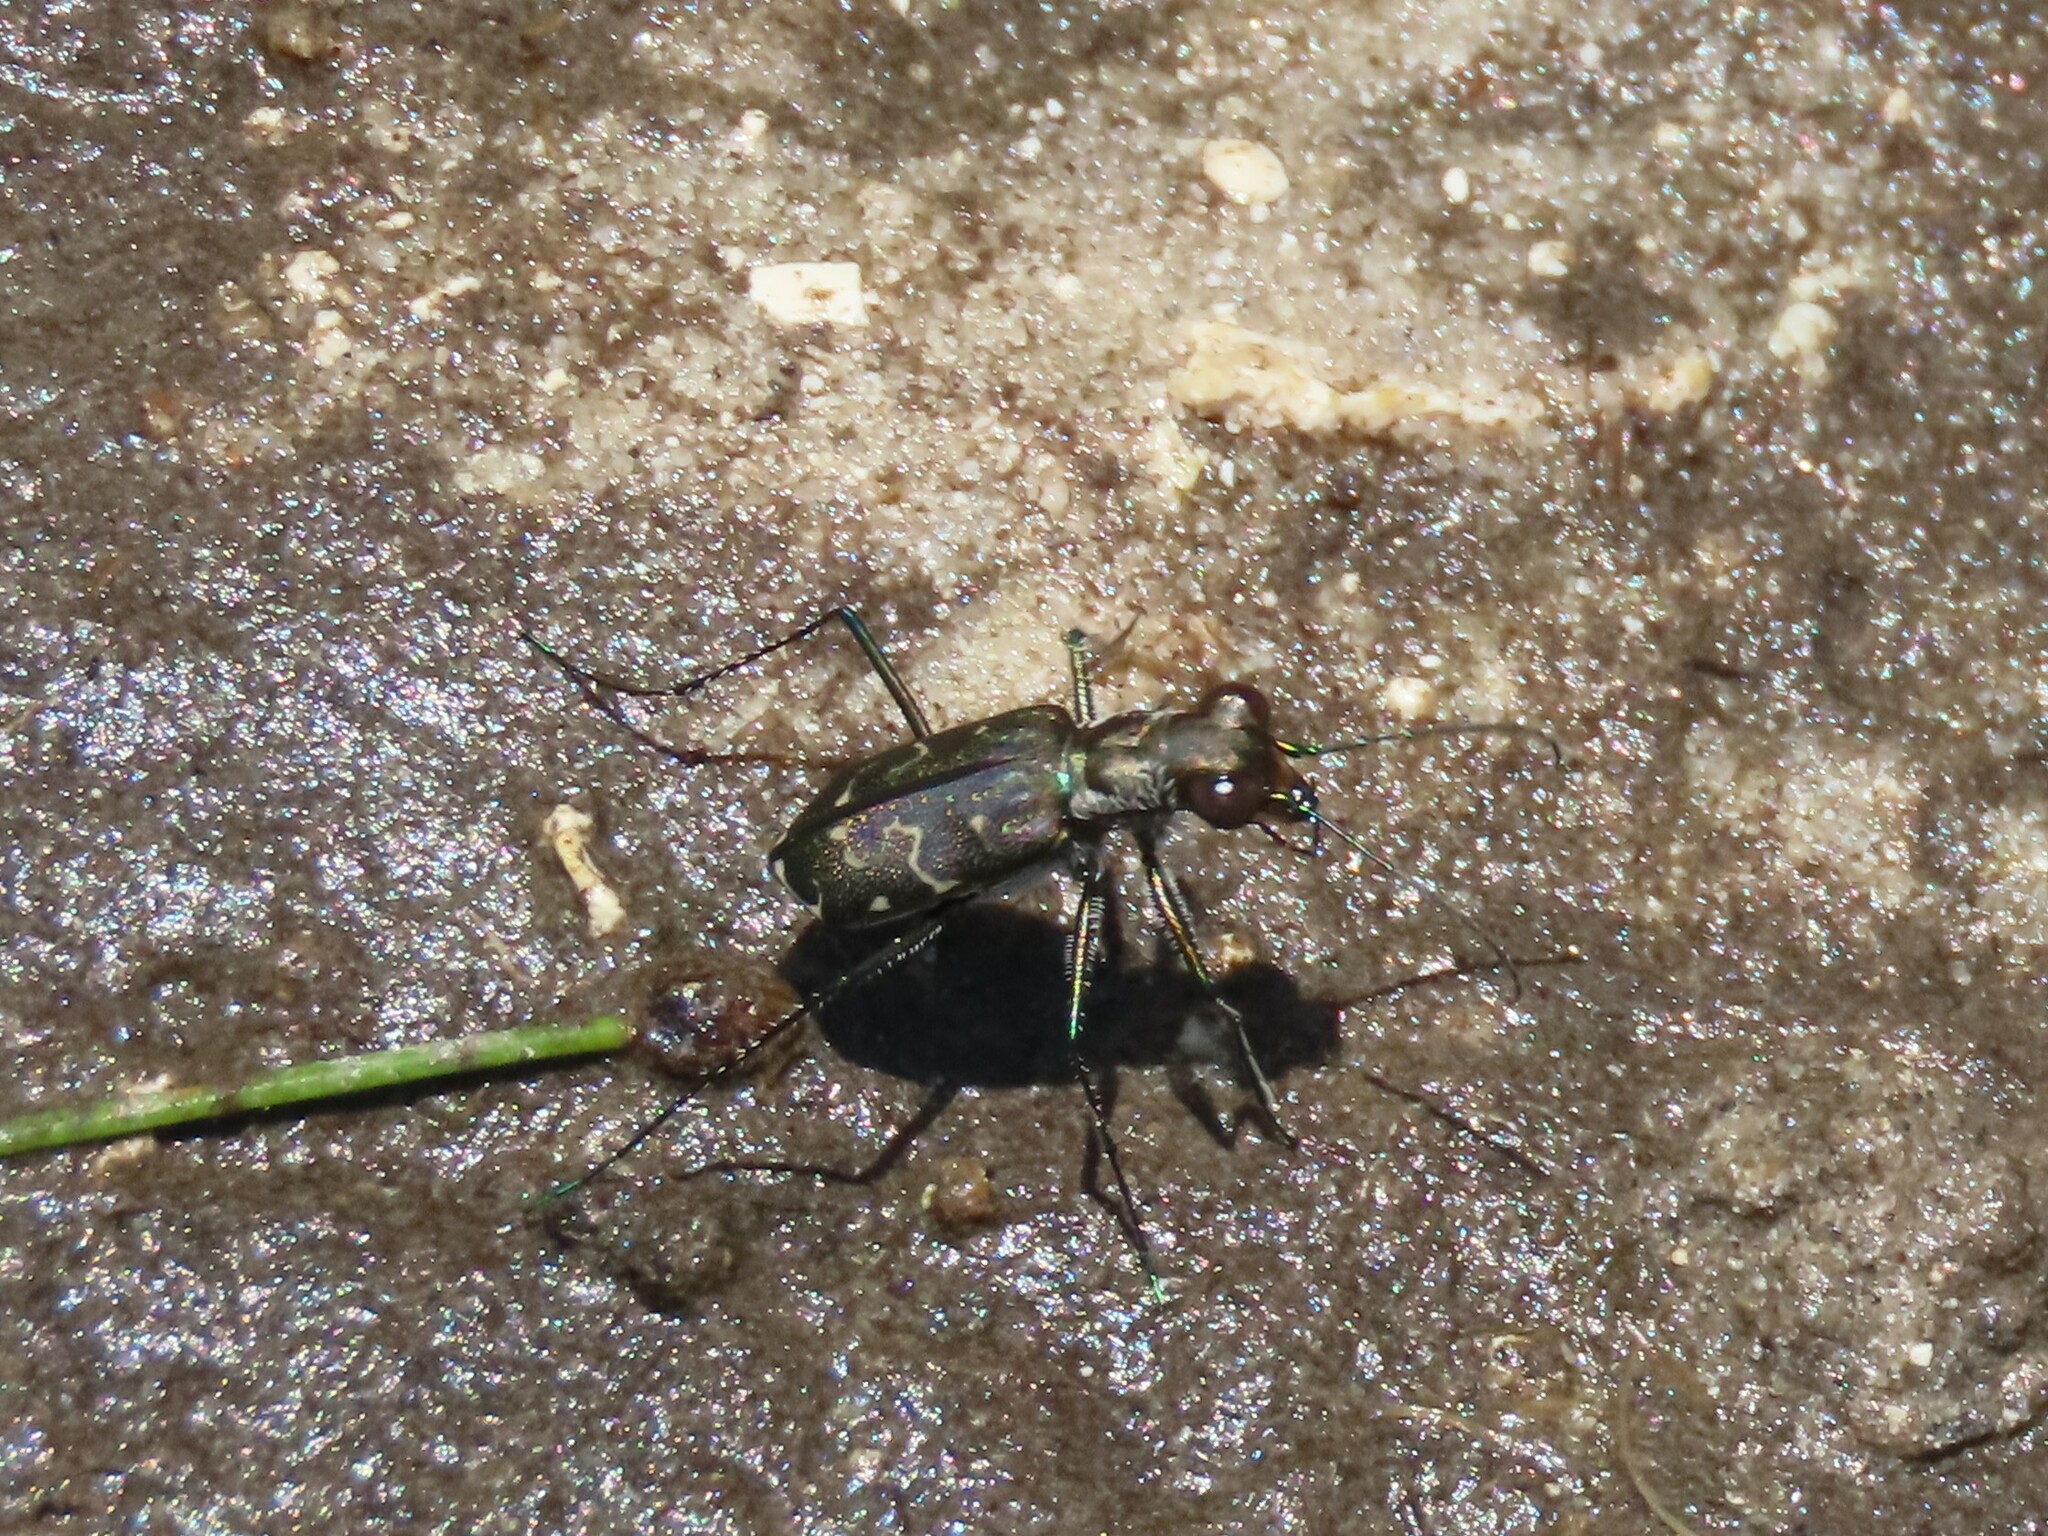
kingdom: Animalia
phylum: Arthropoda
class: Insecta
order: Coleoptera
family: Carabidae
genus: Cicindela
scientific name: Cicindela trifasciata
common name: Mudflat tiger beetle
